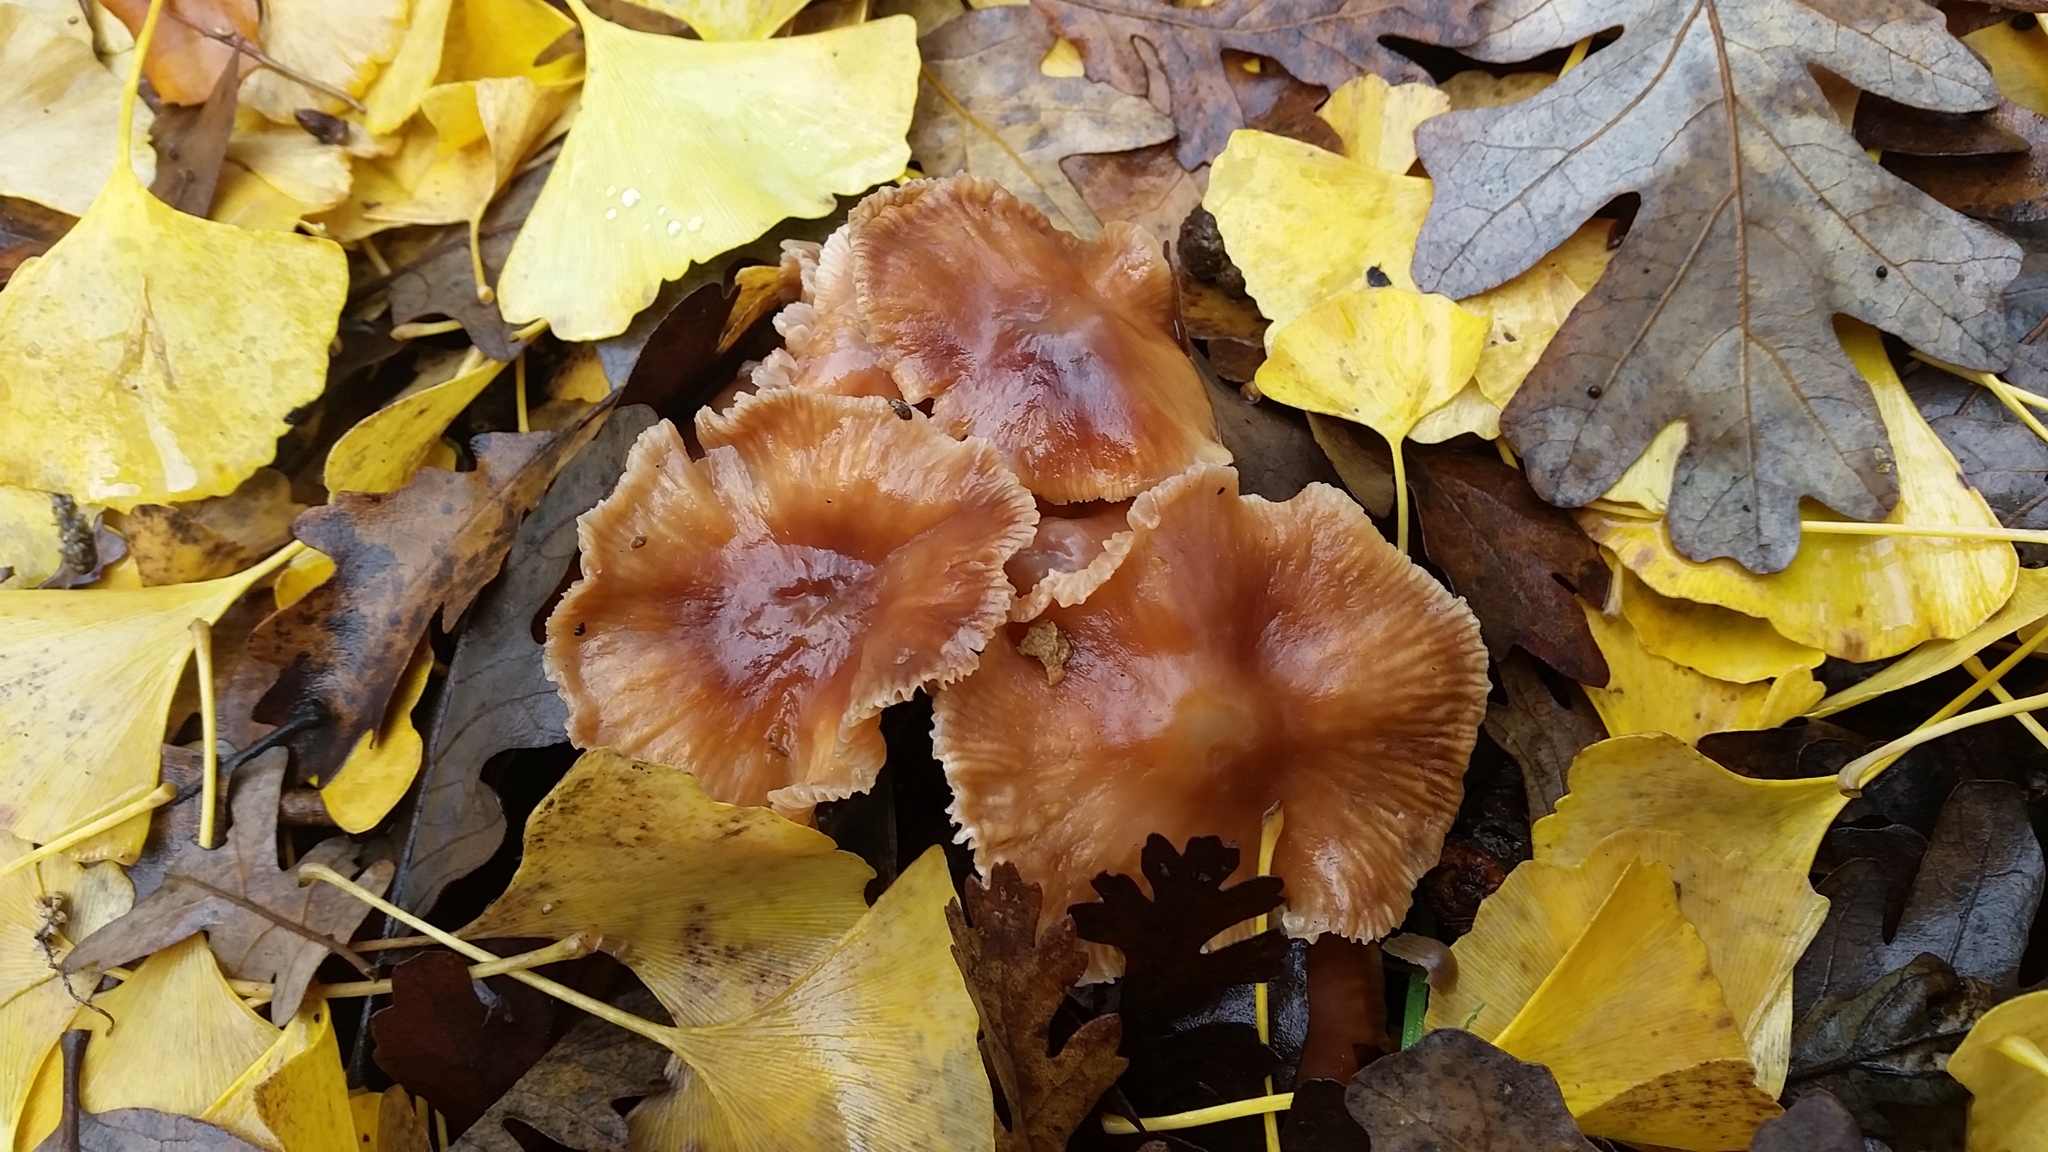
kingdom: Fungi
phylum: Basidiomycota
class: Agaricomycetes
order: Agaricales
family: Omphalotaceae
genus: Gymnopus
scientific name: Gymnopus brassicolens
